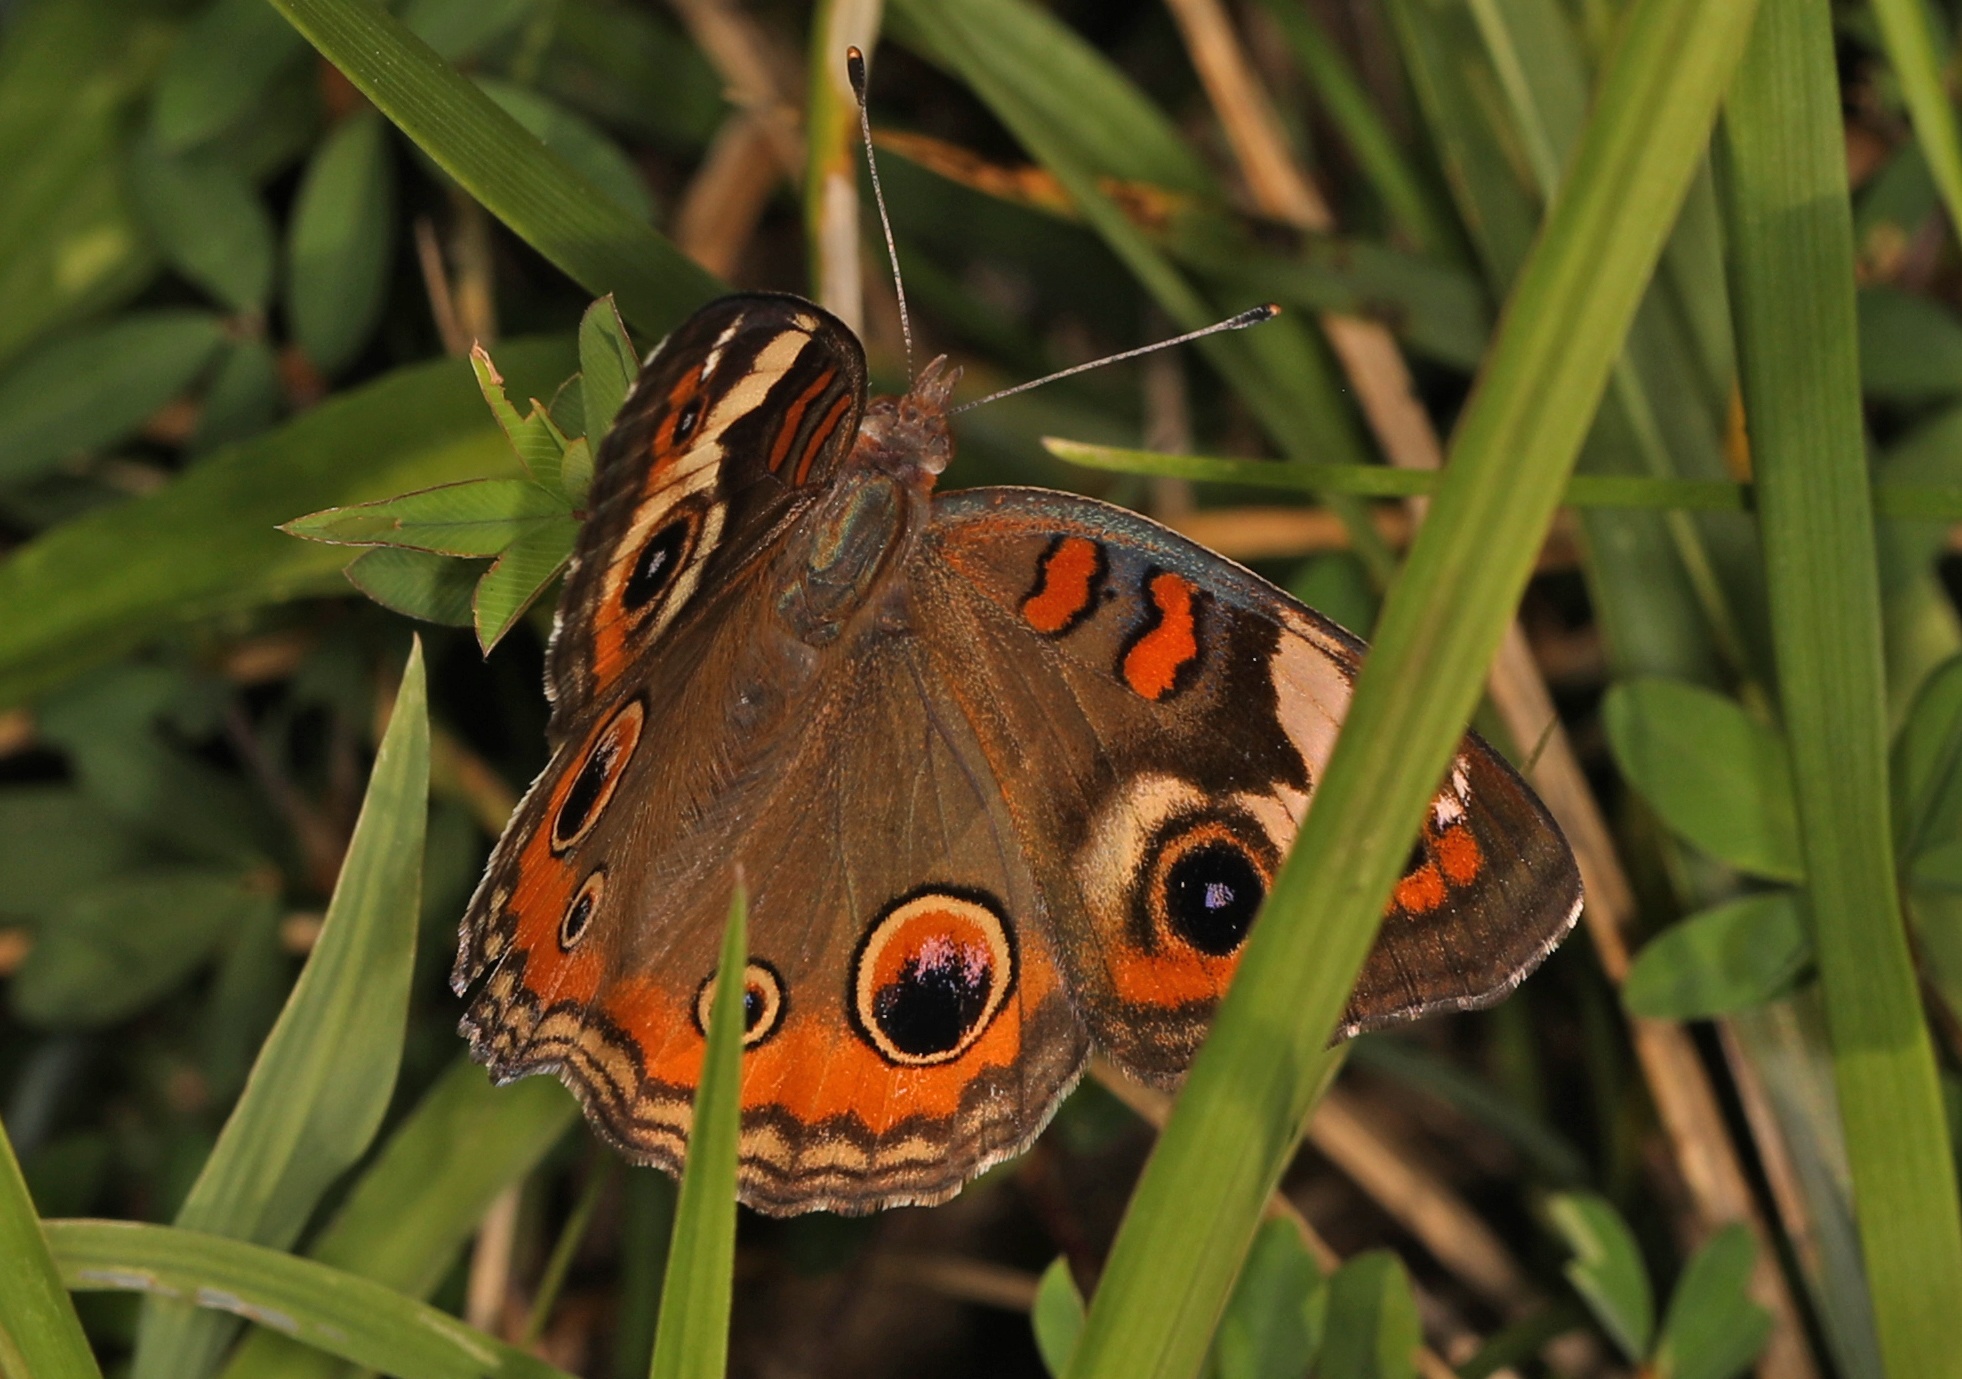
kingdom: Animalia
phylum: Arthropoda
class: Insecta
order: Lepidoptera
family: Nymphalidae
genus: Junonia
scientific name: Junonia coenia
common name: Common buckeye
